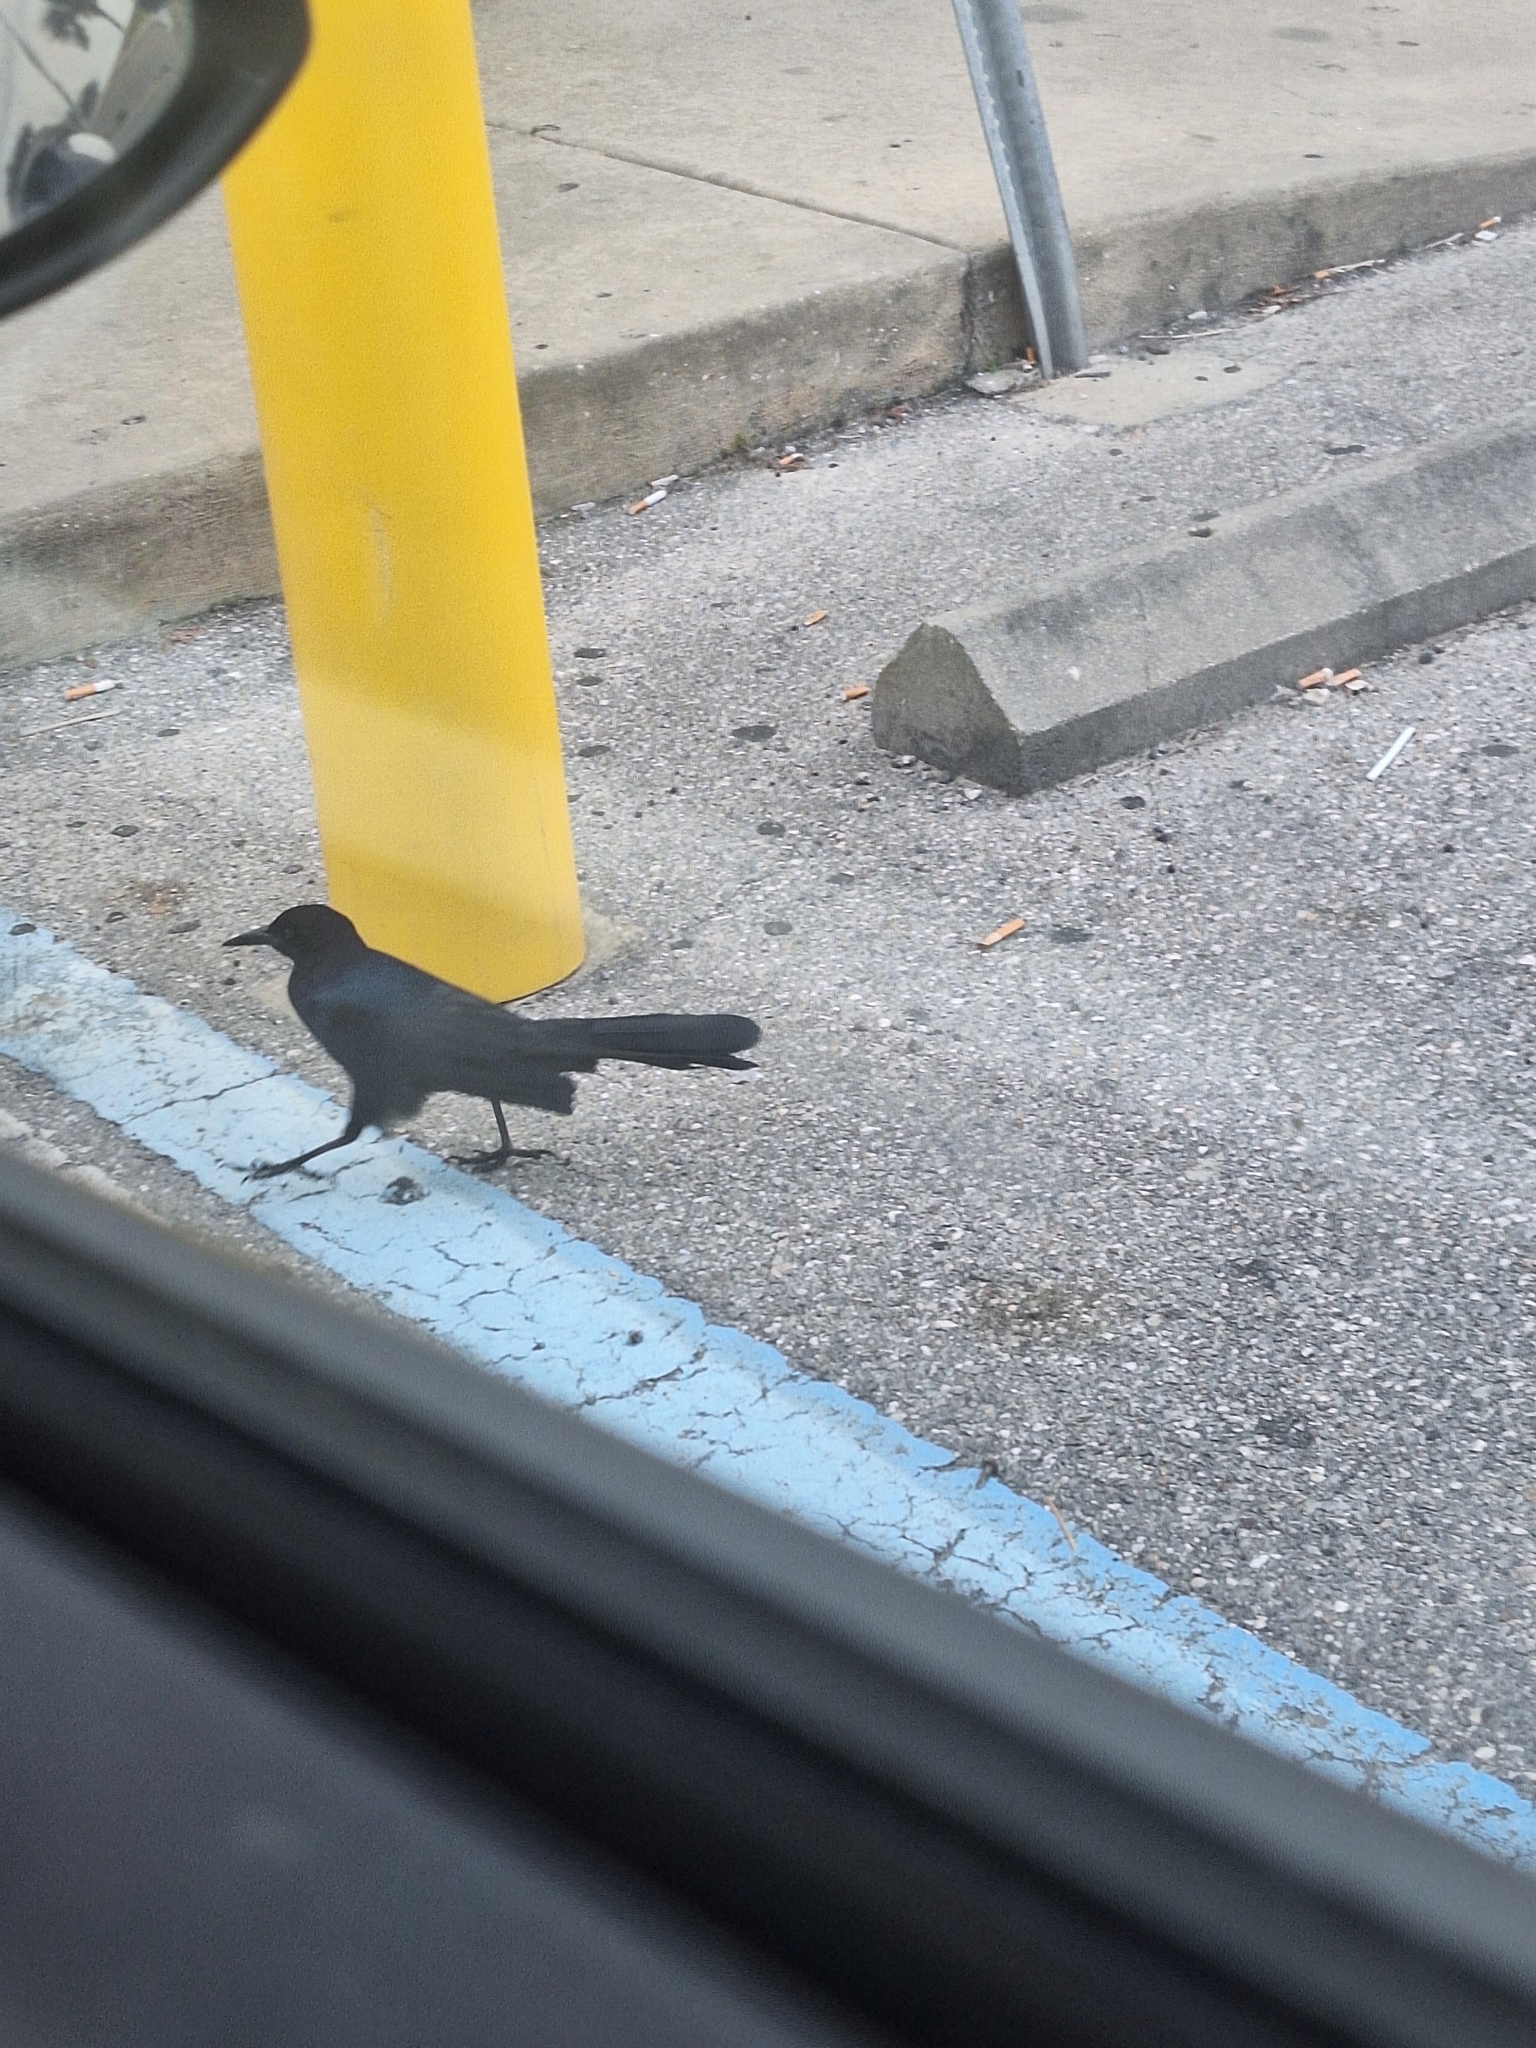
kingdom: Animalia
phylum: Chordata
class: Aves
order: Passeriformes
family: Icteridae
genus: Quiscalus
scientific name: Quiscalus major
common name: Boat-tailed grackle
